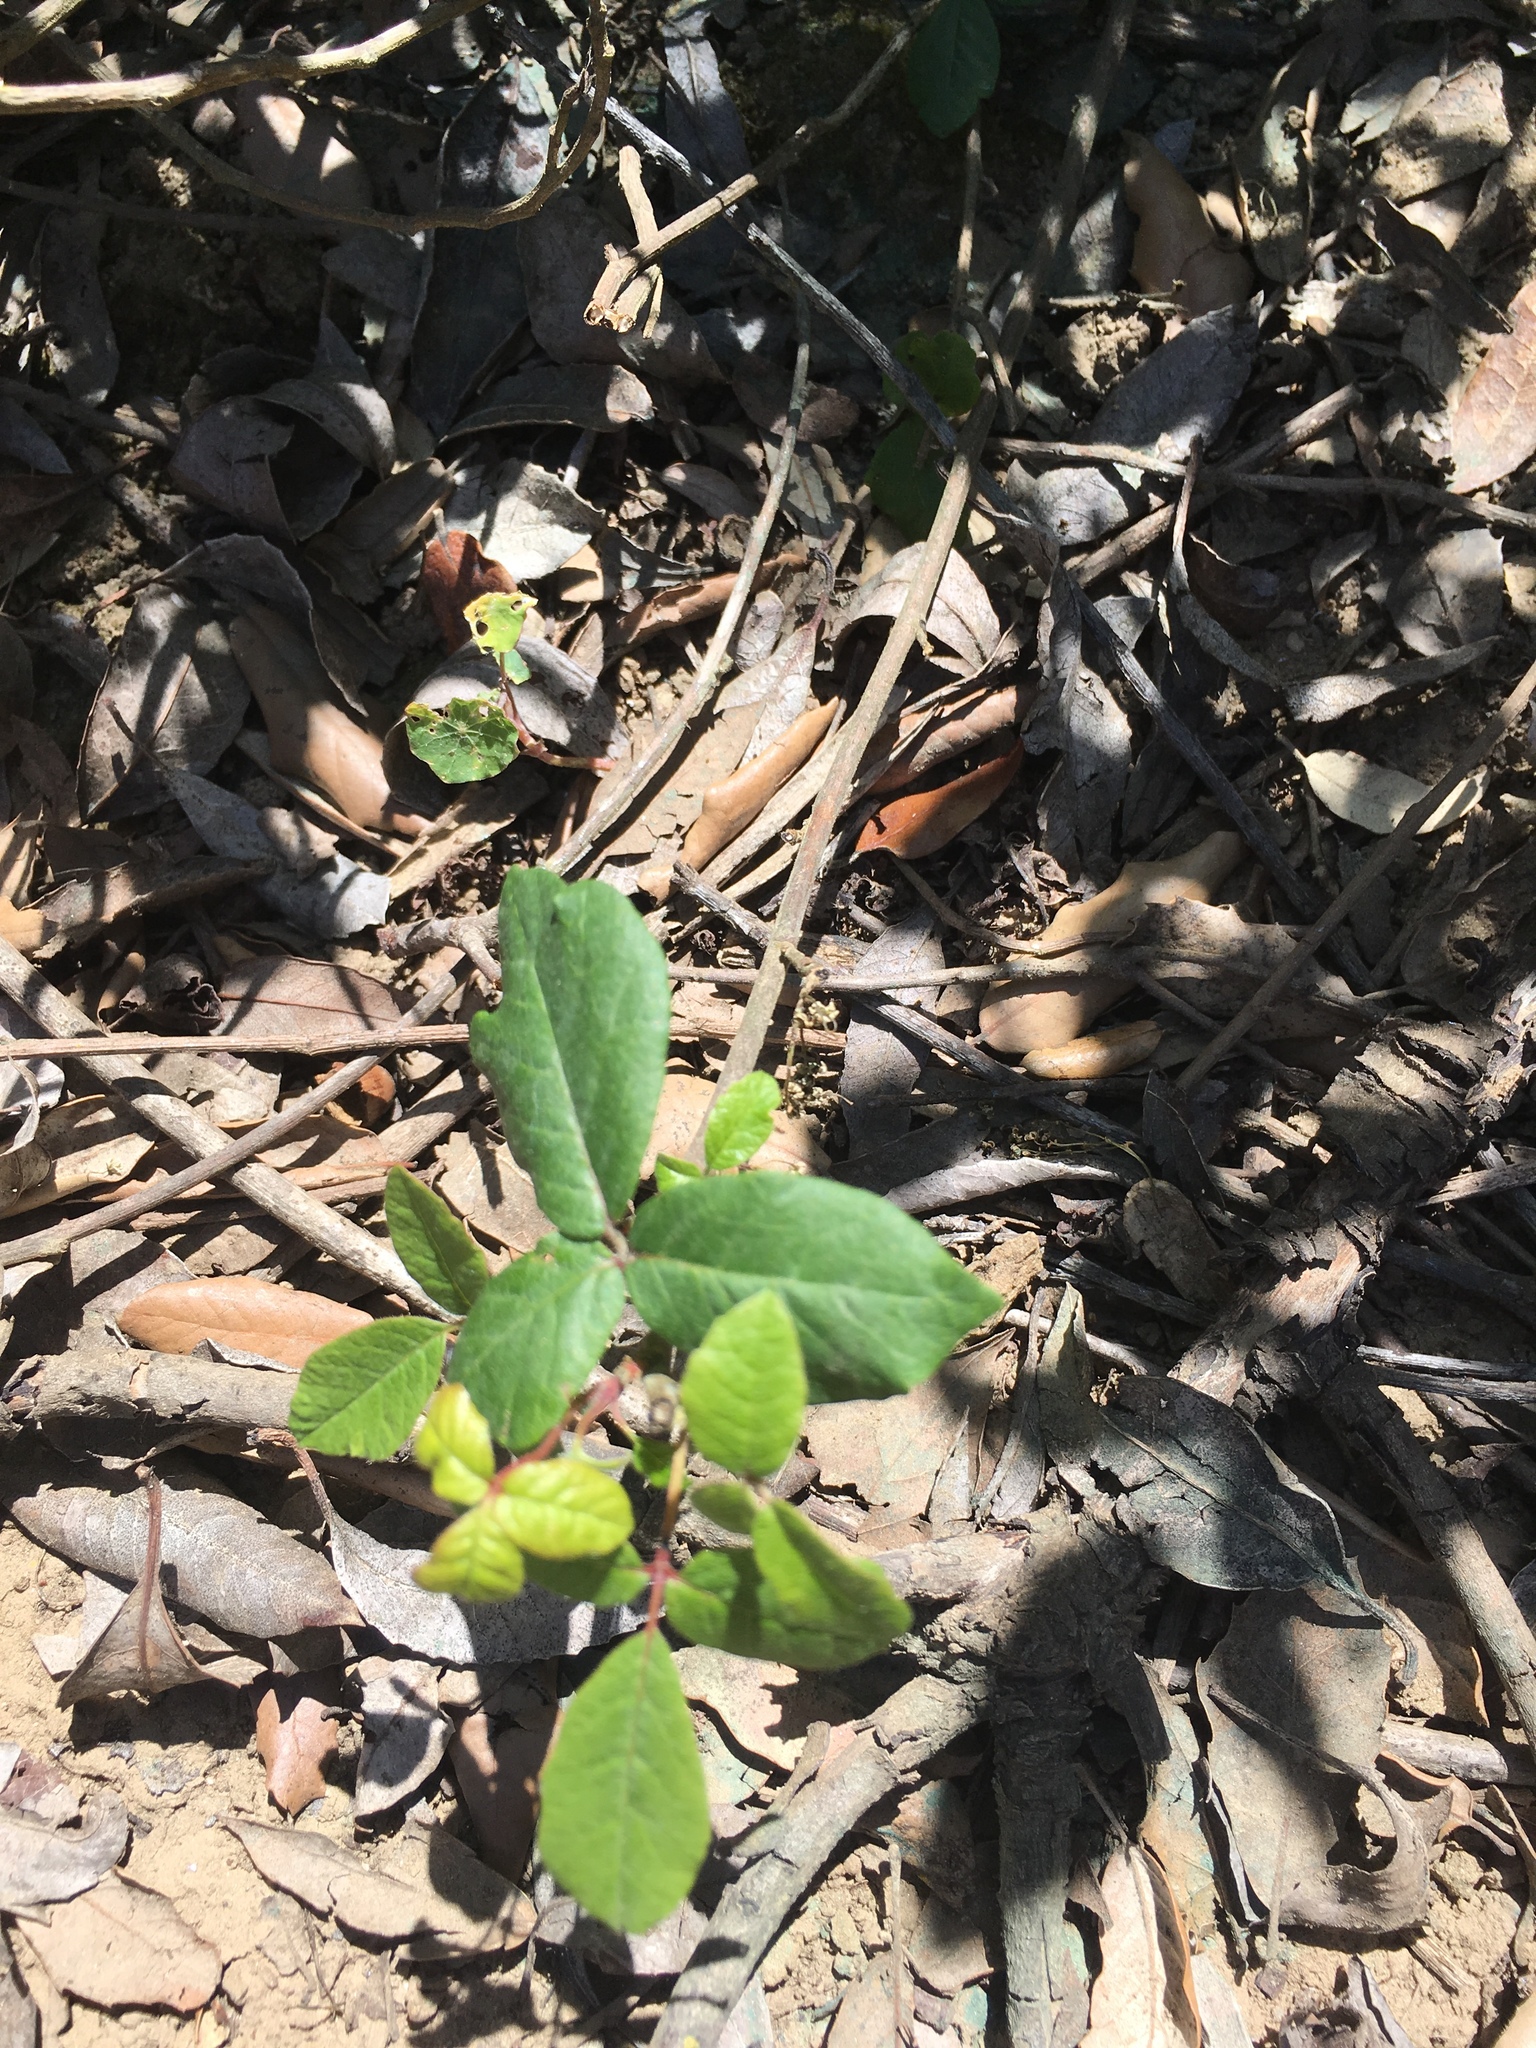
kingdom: Plantae
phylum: Tracheophyta
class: Magnoliopsida
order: Sapindales
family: Anacardiaceae
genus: Toxicodendron
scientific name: Toxicodendron diversilobum
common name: Pacific poison-oak
